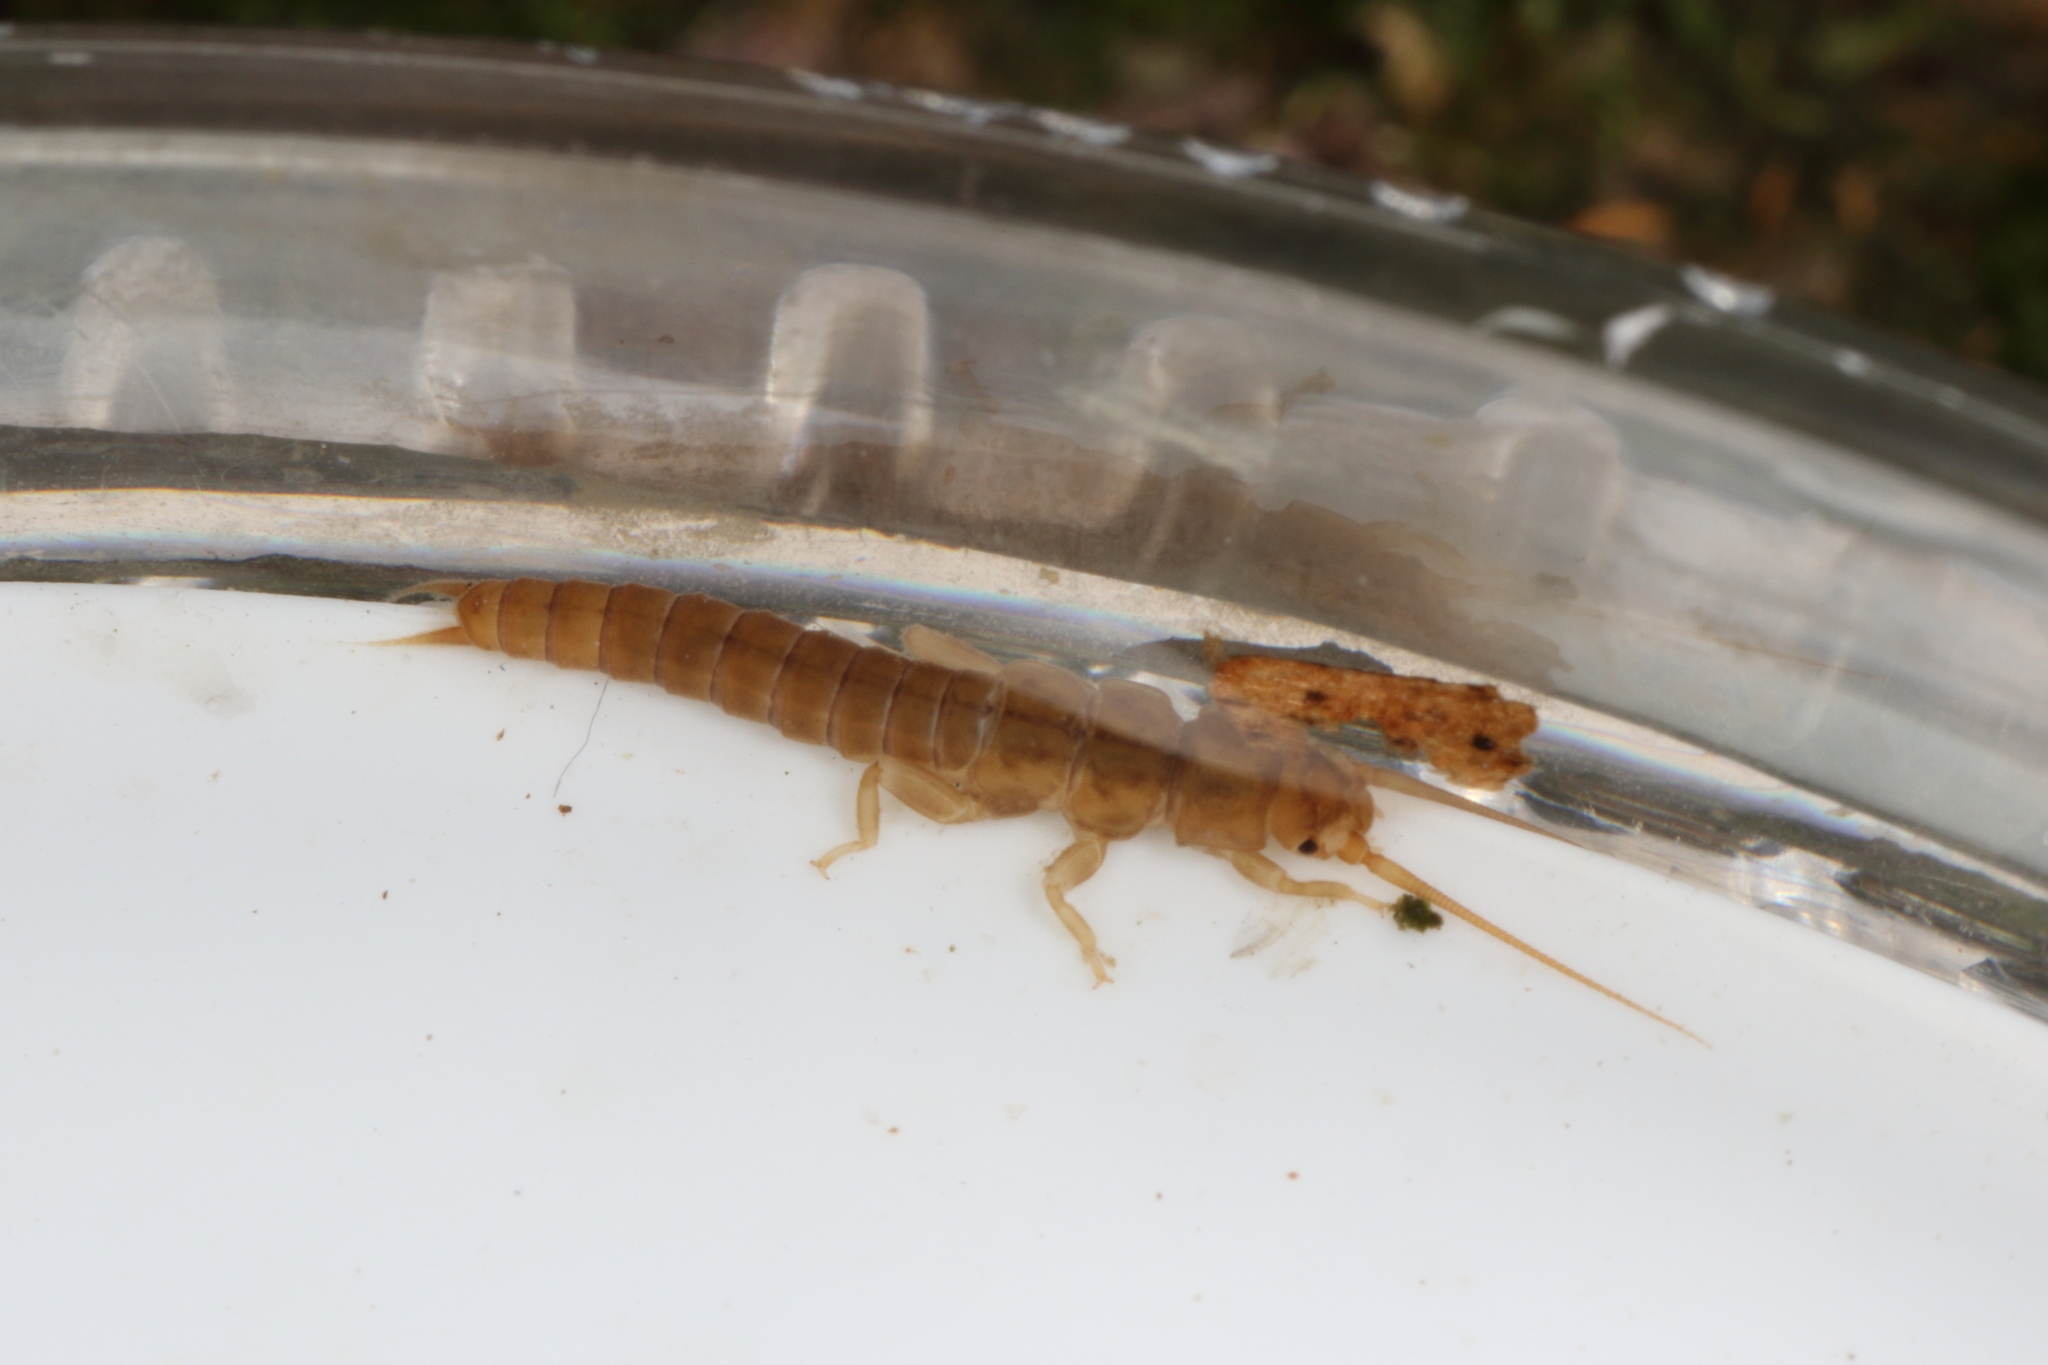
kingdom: Animalia
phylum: Arthropoda
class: Insecta
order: Plecoptera
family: Austroperlidae
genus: Austroperla
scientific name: Austroperla cyrene
